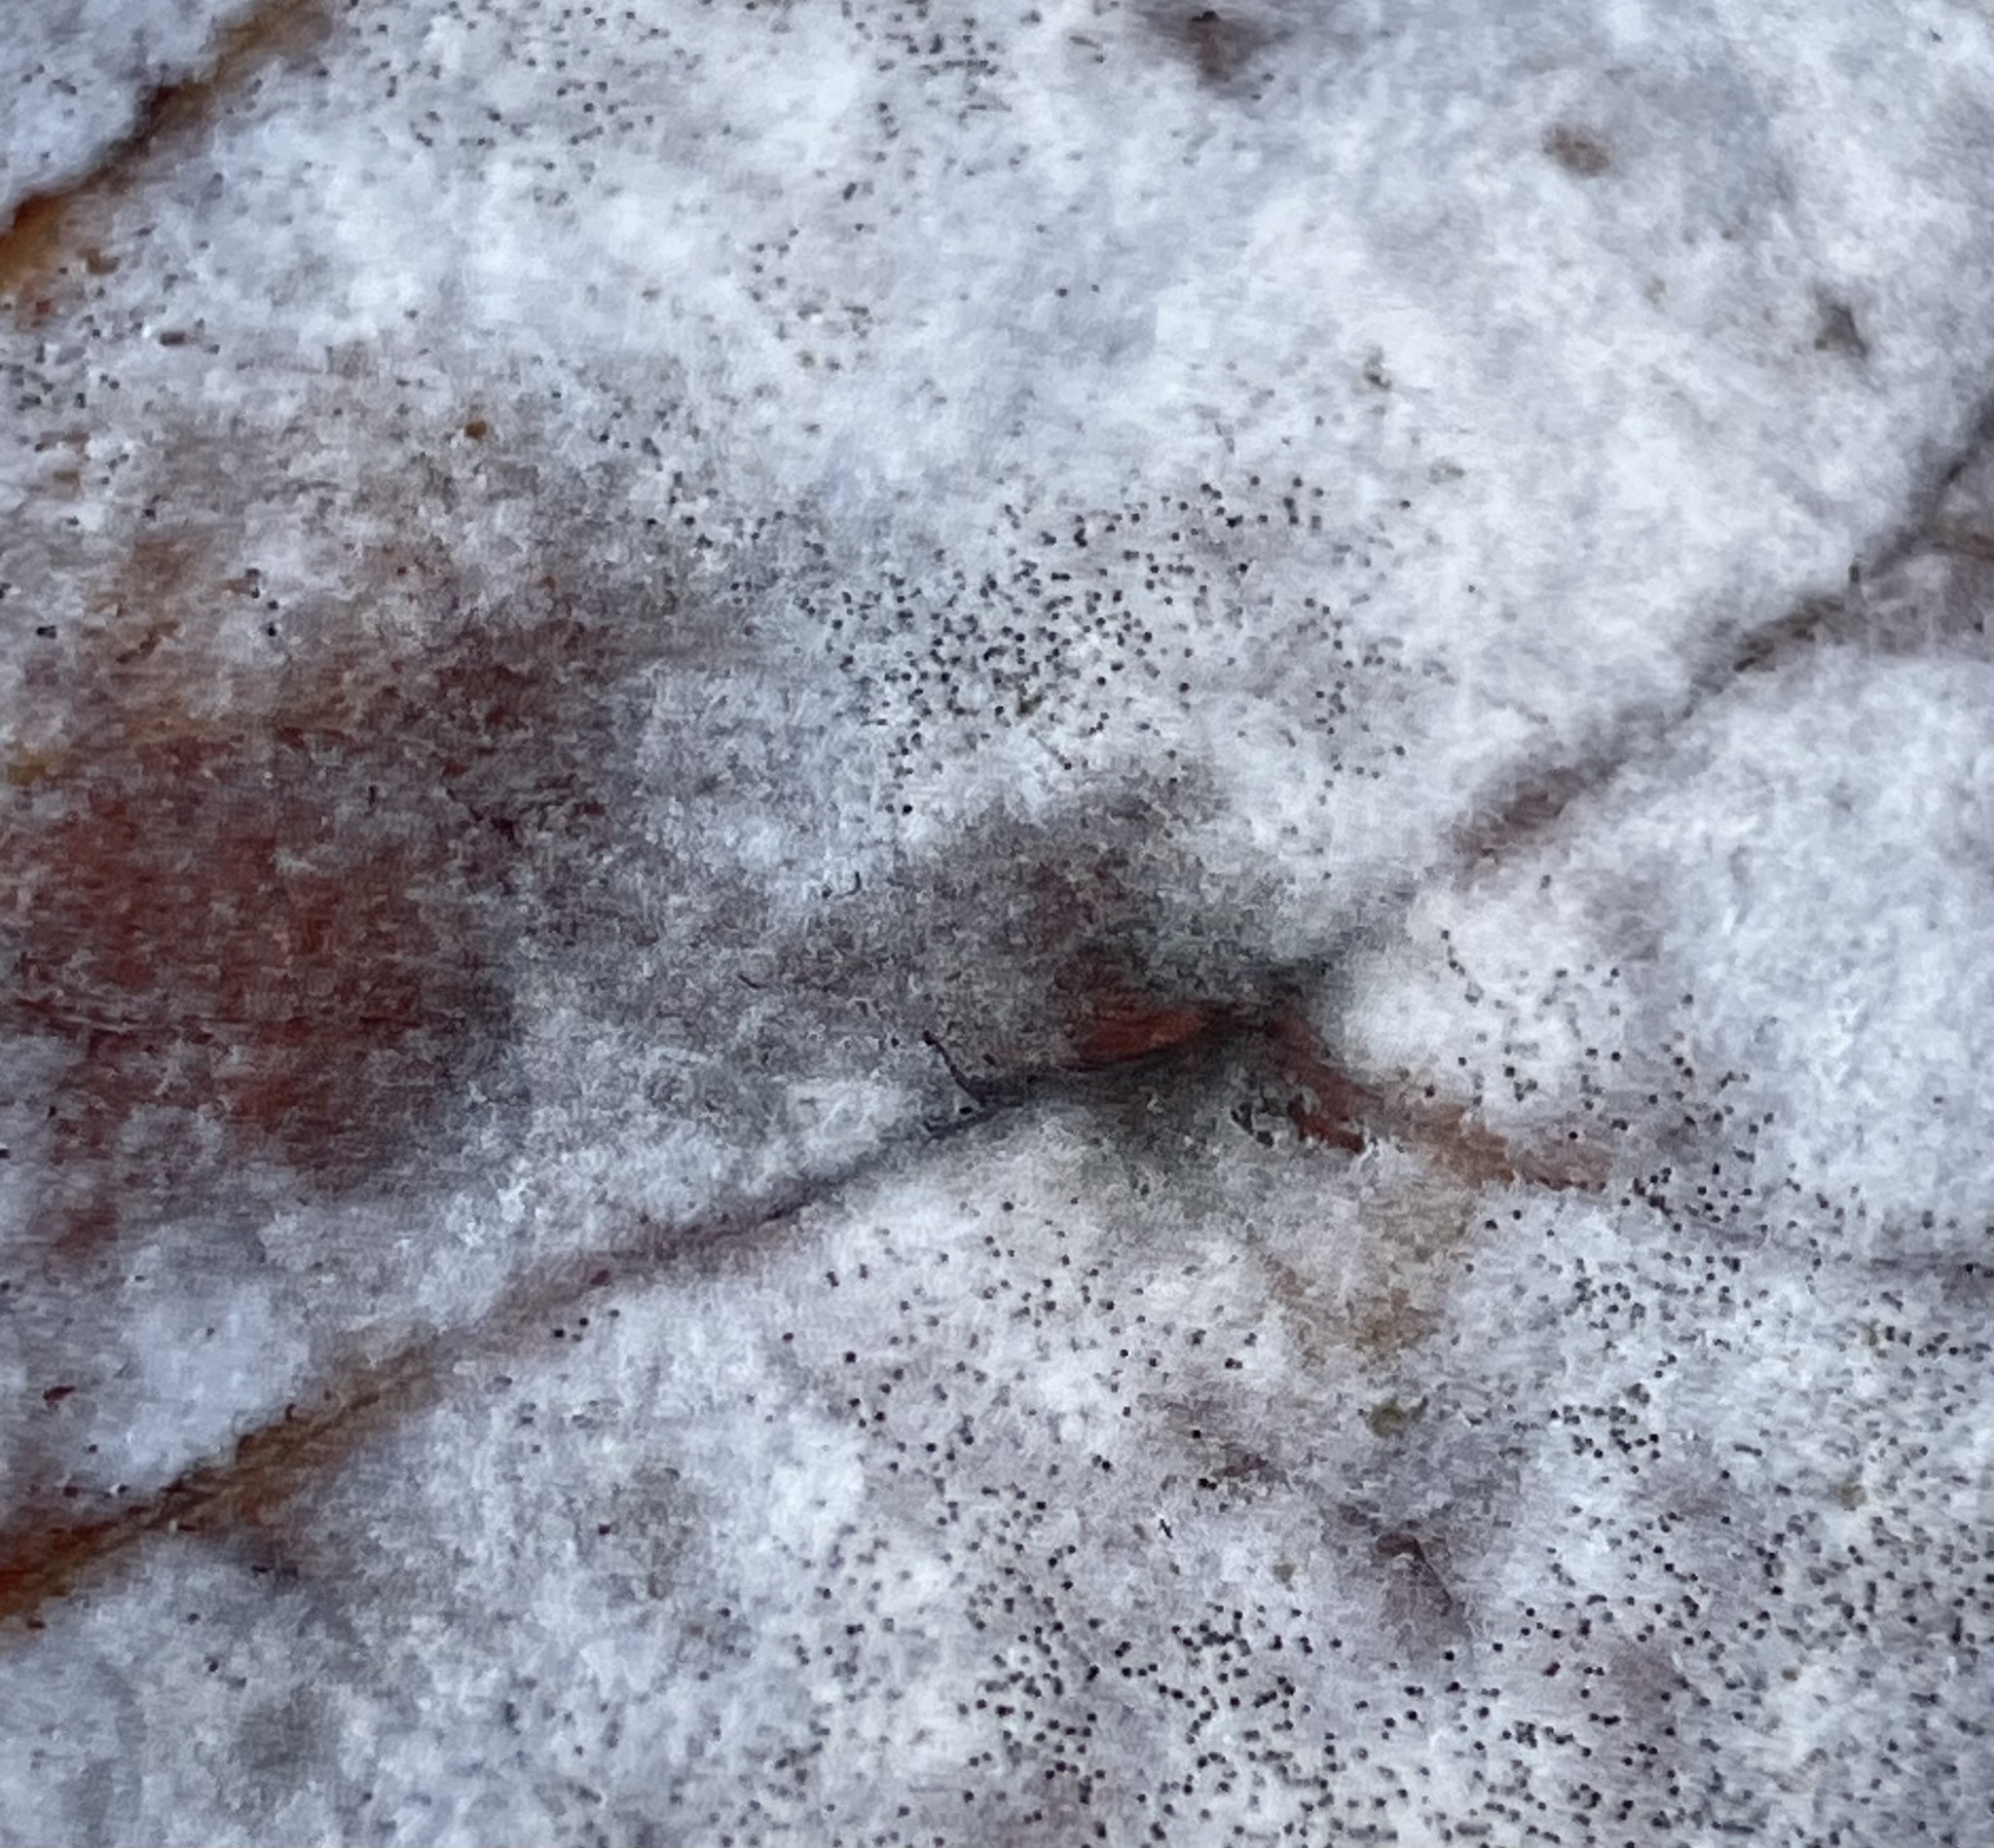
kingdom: Fungi
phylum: Ascomycota
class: Leotiomycetes
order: Helotiales
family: Erysiphaceae
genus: Erysiphe
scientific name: Erysiphe liriodendri
